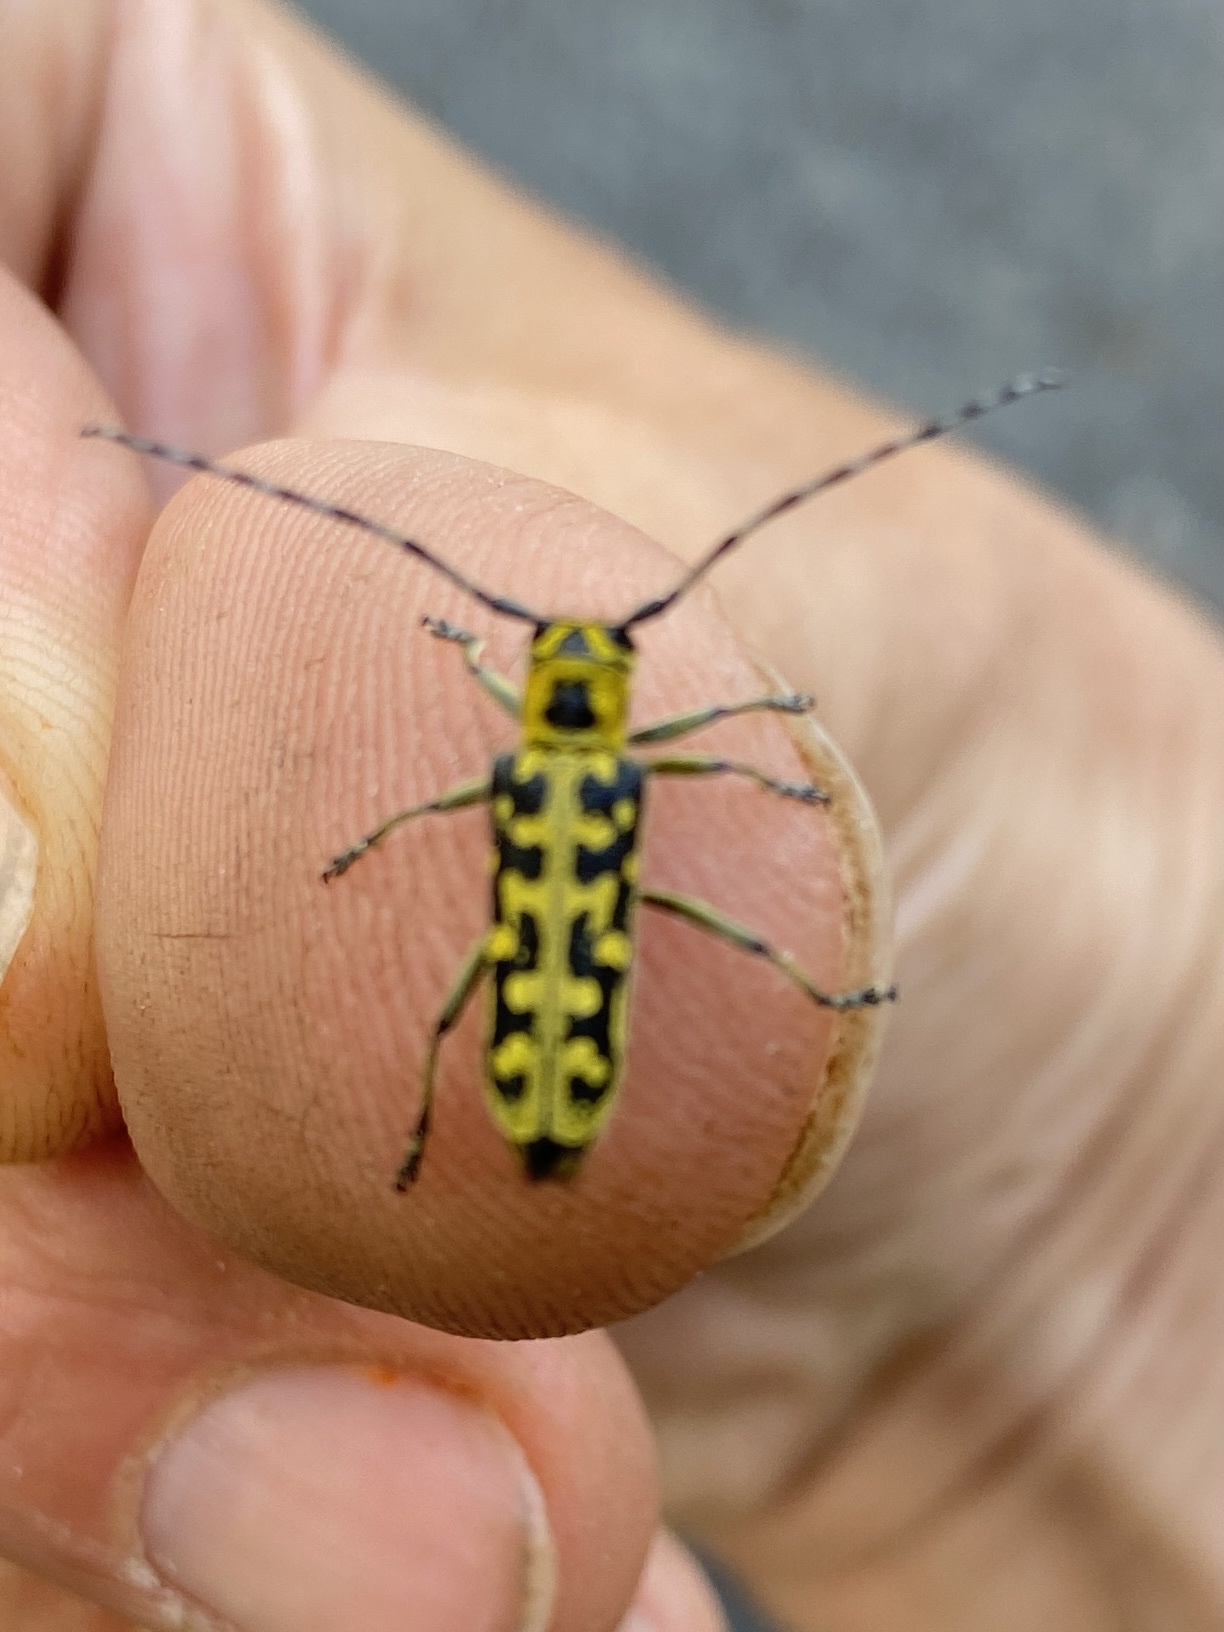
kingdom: Animalia
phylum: Arthropoda
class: Insecta
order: Coleoptera
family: Cerambycidae
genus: Saperda
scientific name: Saperda scalaris
